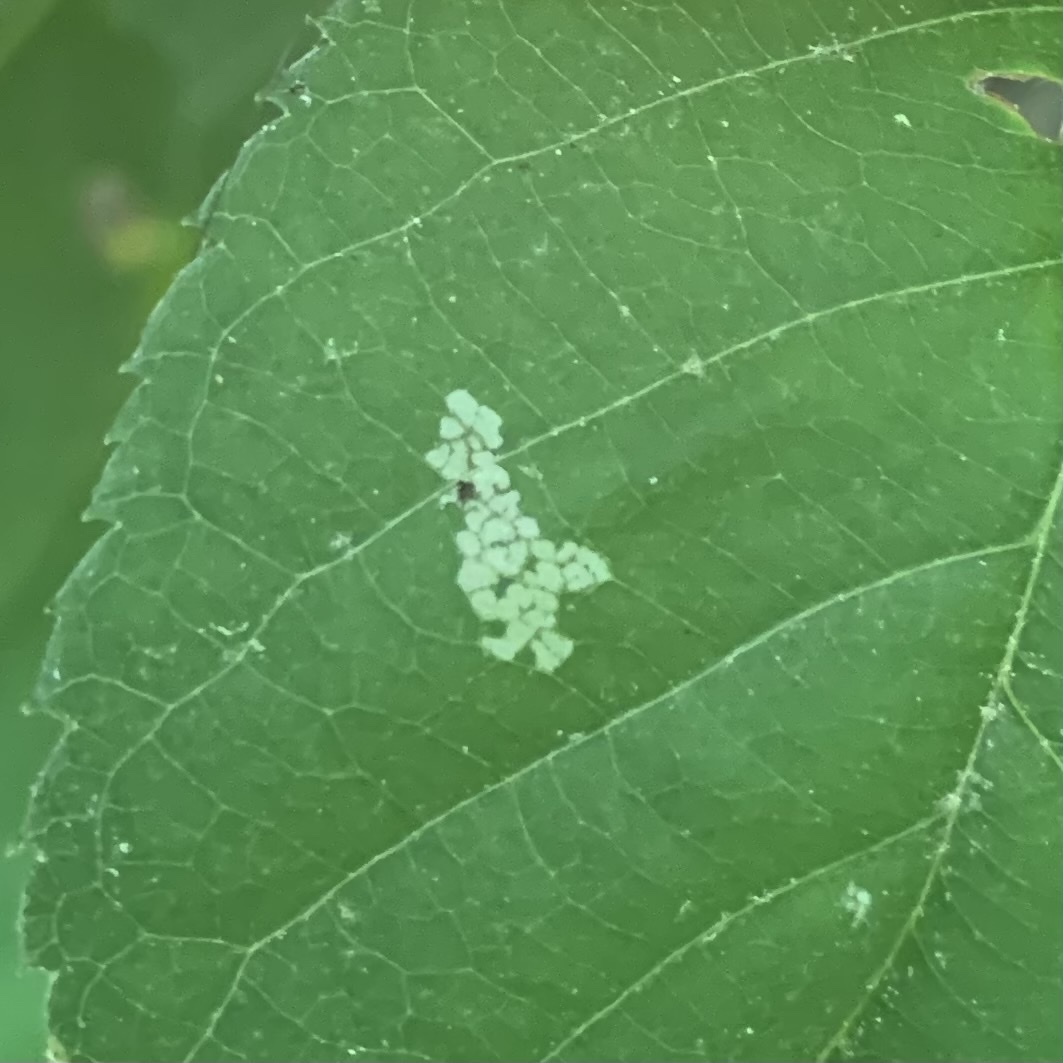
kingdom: Animalia
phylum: Arthropoda
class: Insecta
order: Lepidoptera
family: Peleopodidae
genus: Machimia
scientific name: Machimia tentoriferella
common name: Gold-striped leaftier moth
